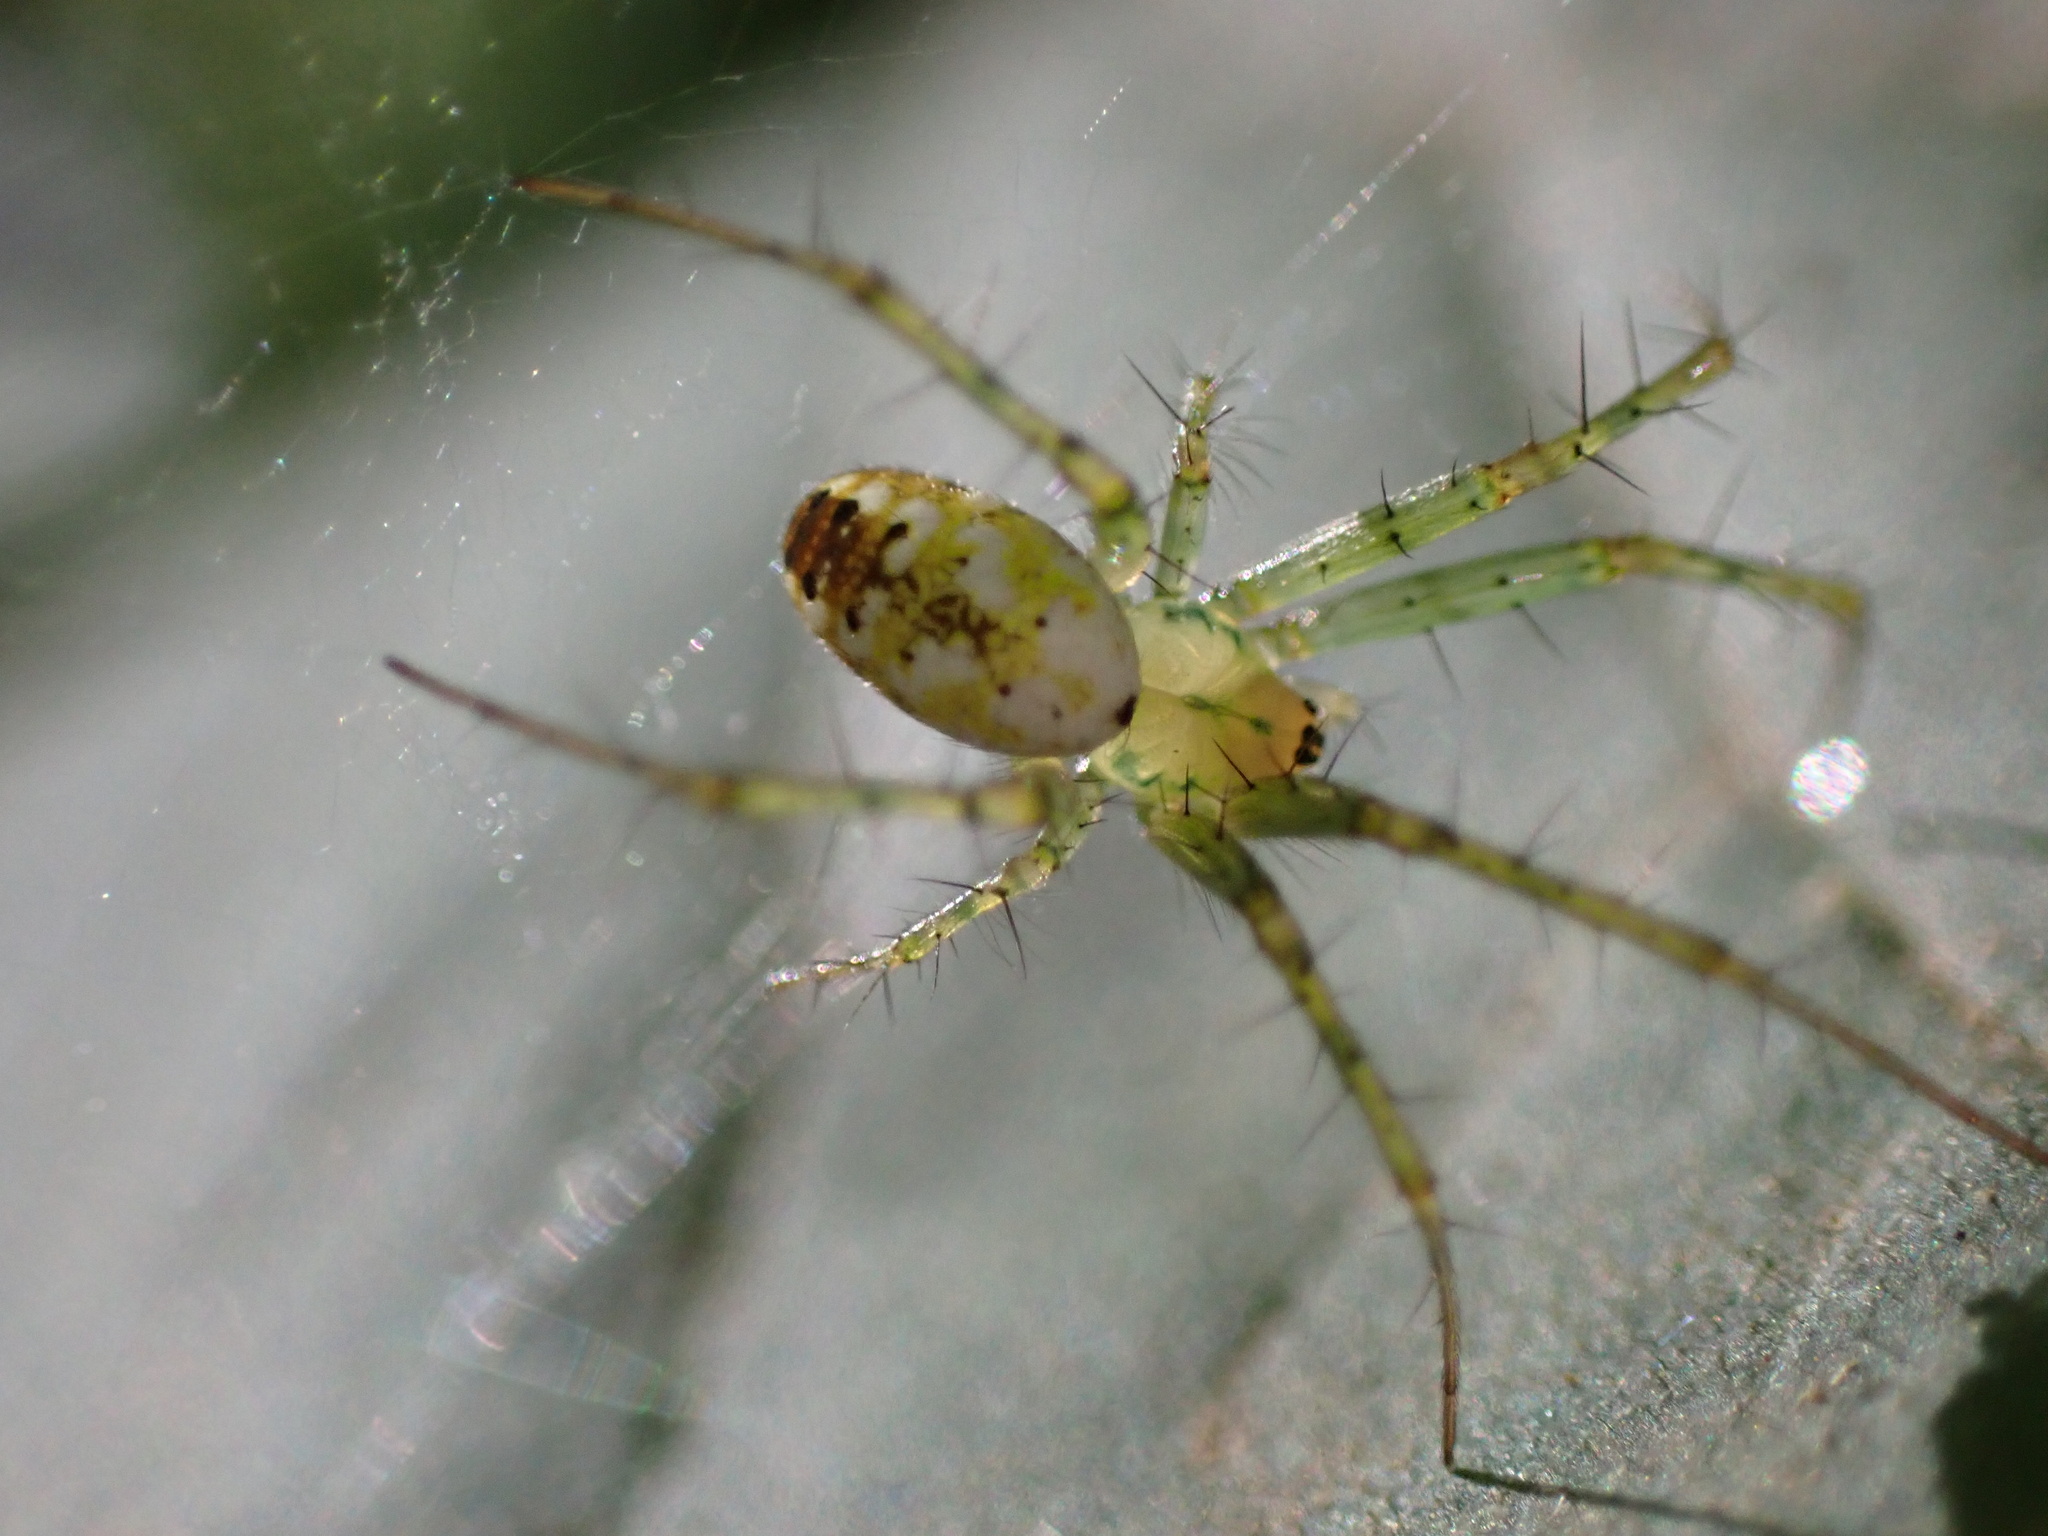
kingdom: Animalia
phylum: Arthropoda
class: Arachnida
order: Araneae
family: Araneidae
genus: Mangora
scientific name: Mangora spiculata
